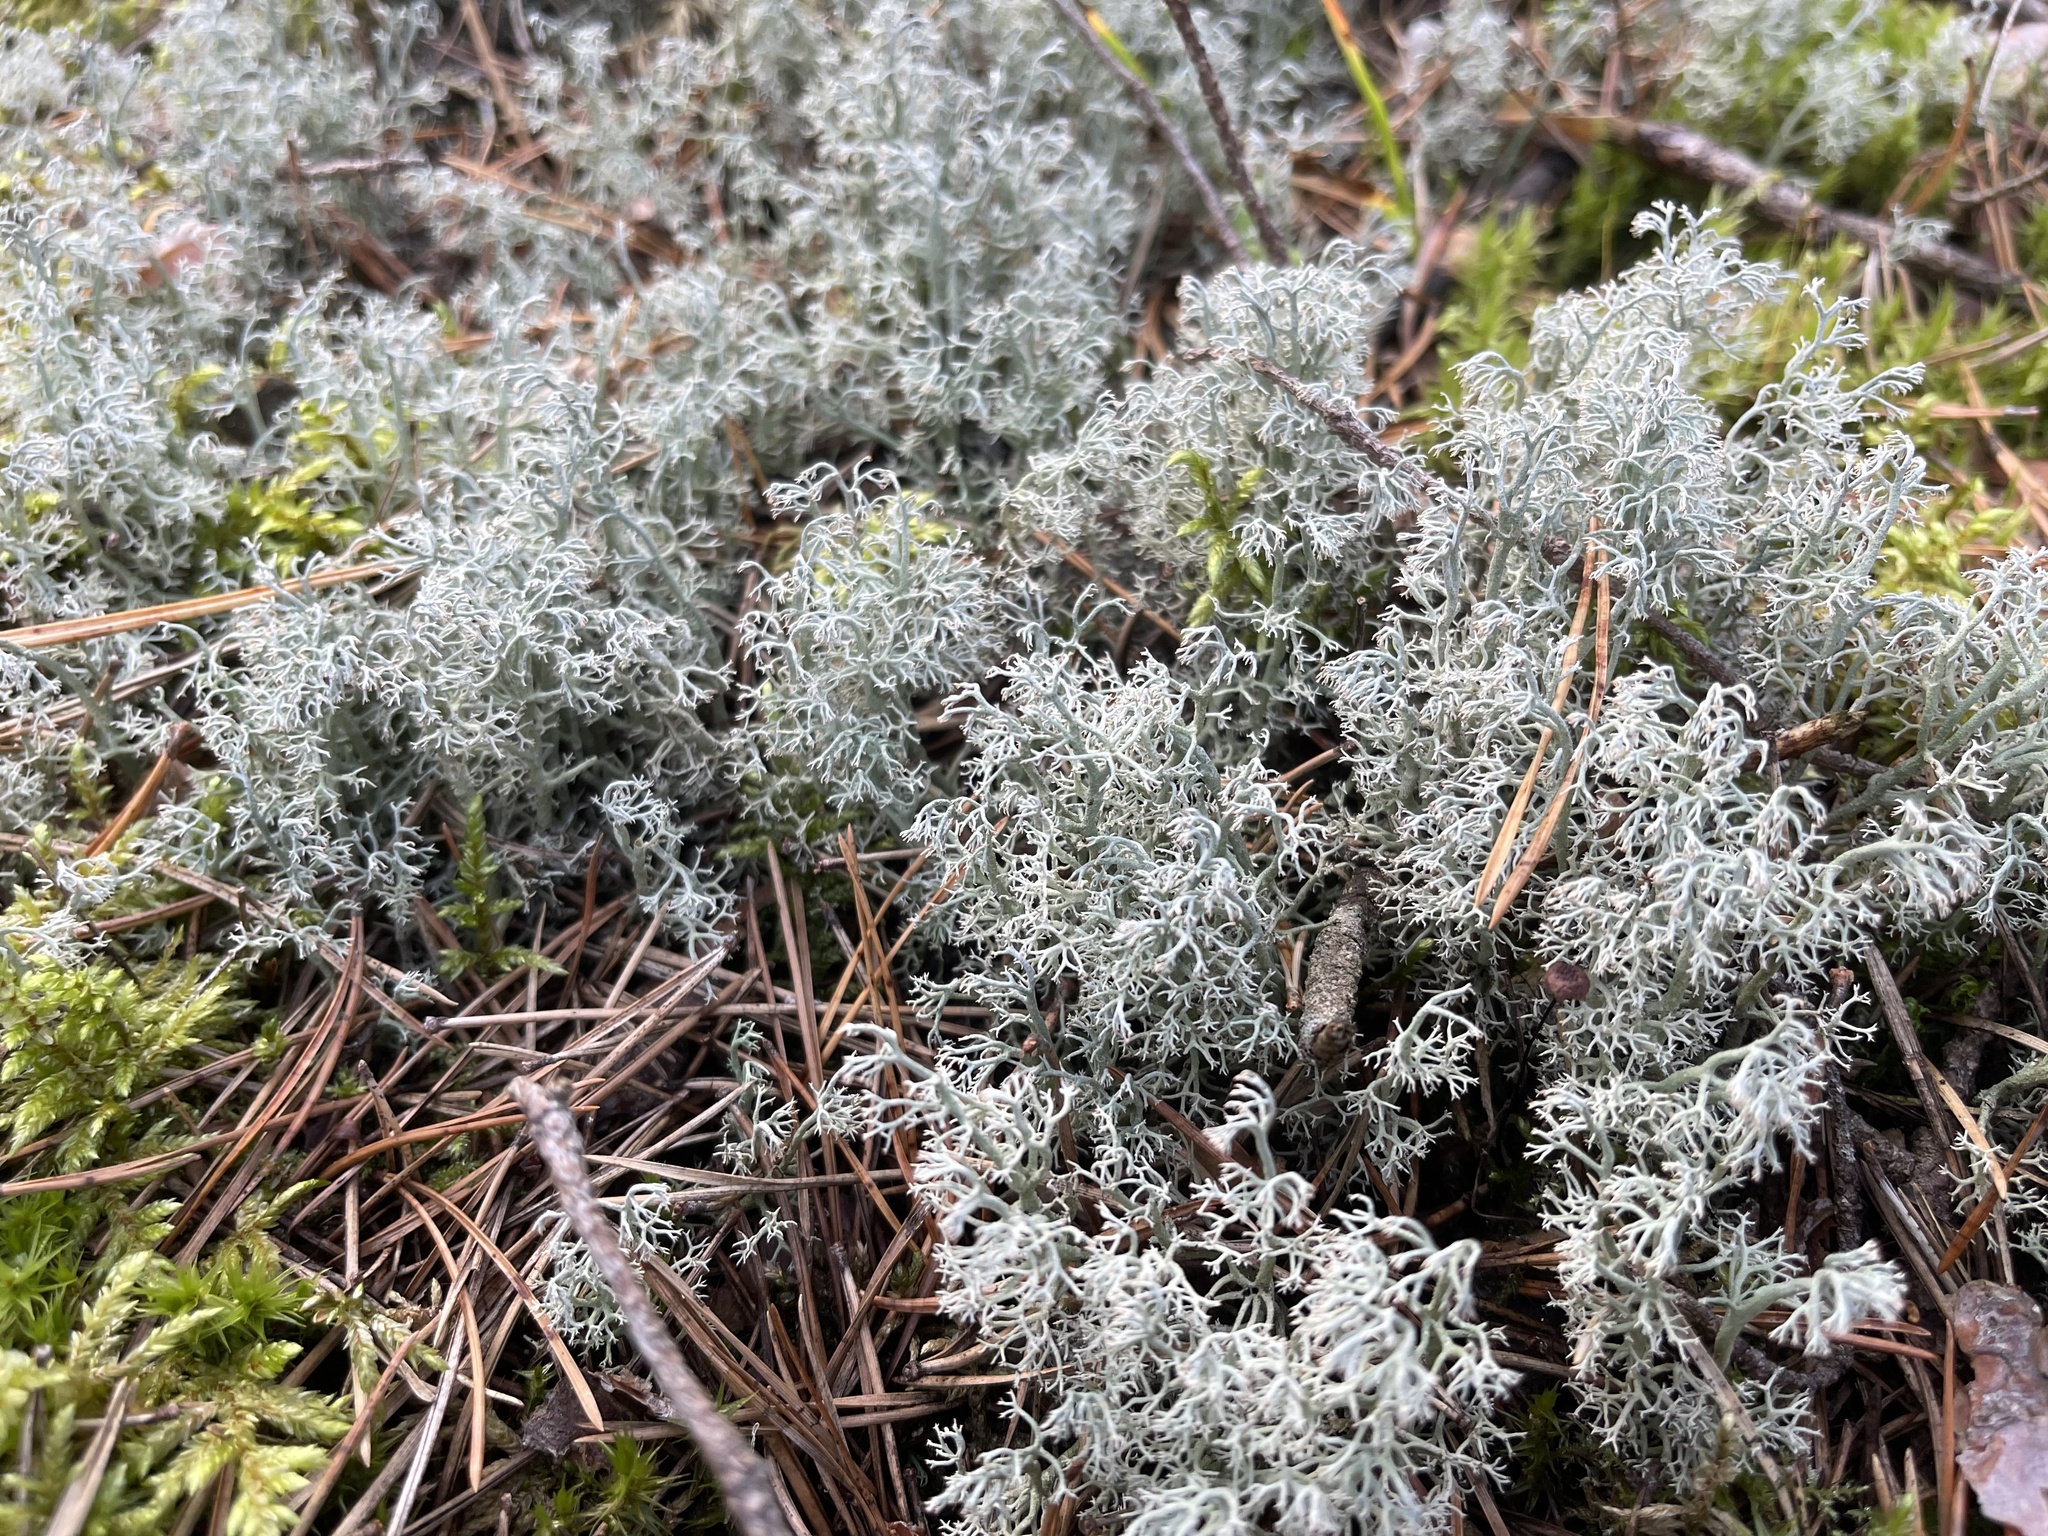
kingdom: Fungi
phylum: Ascomycota
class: Lecanoromycetes
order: Lecanorales
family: Cladoniaceae
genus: Cladonia
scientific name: Cladonia
